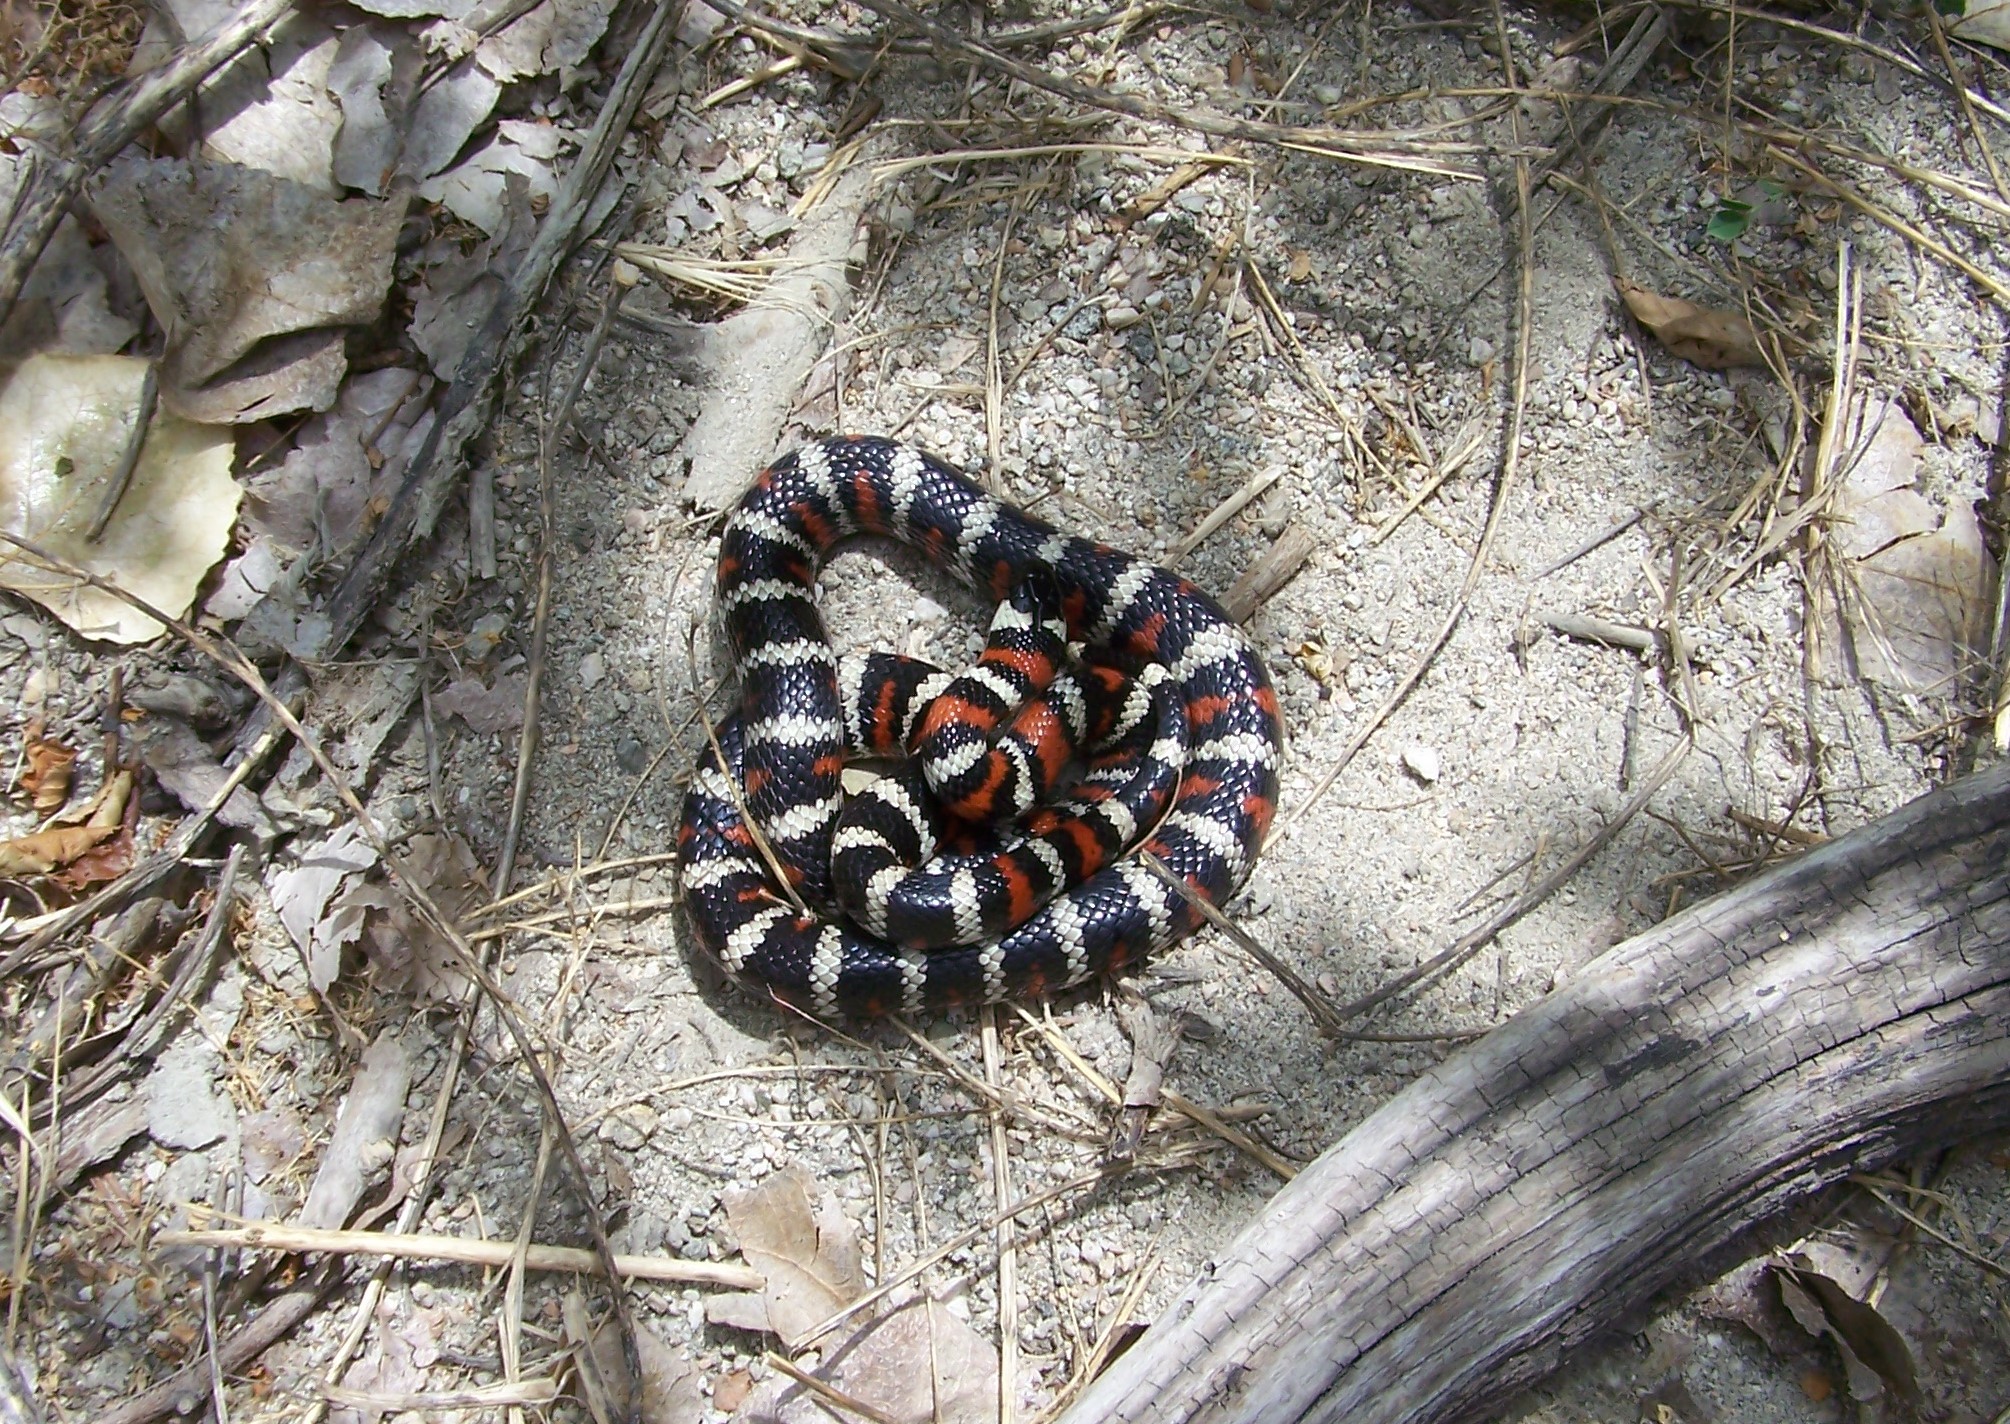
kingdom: Animalia
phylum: Chordata
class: Squamata
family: Colubridae
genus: Lampropeltis
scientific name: Lampropeltis zonata
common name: California mountain kingsnake
